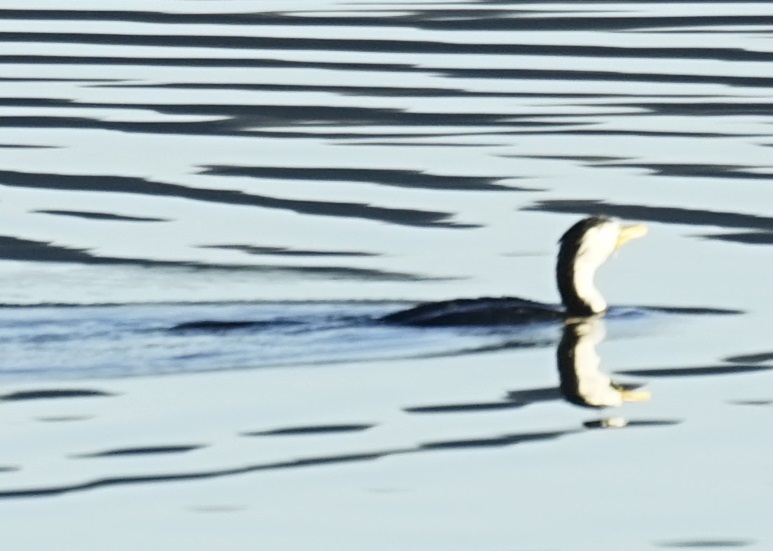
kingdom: Animalia
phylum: Chordata
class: Aves
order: Suliformes
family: Phalacrocoracidae
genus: Microcarbo
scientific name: Microcarbo melanoleucos
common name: Little pied cormorant
